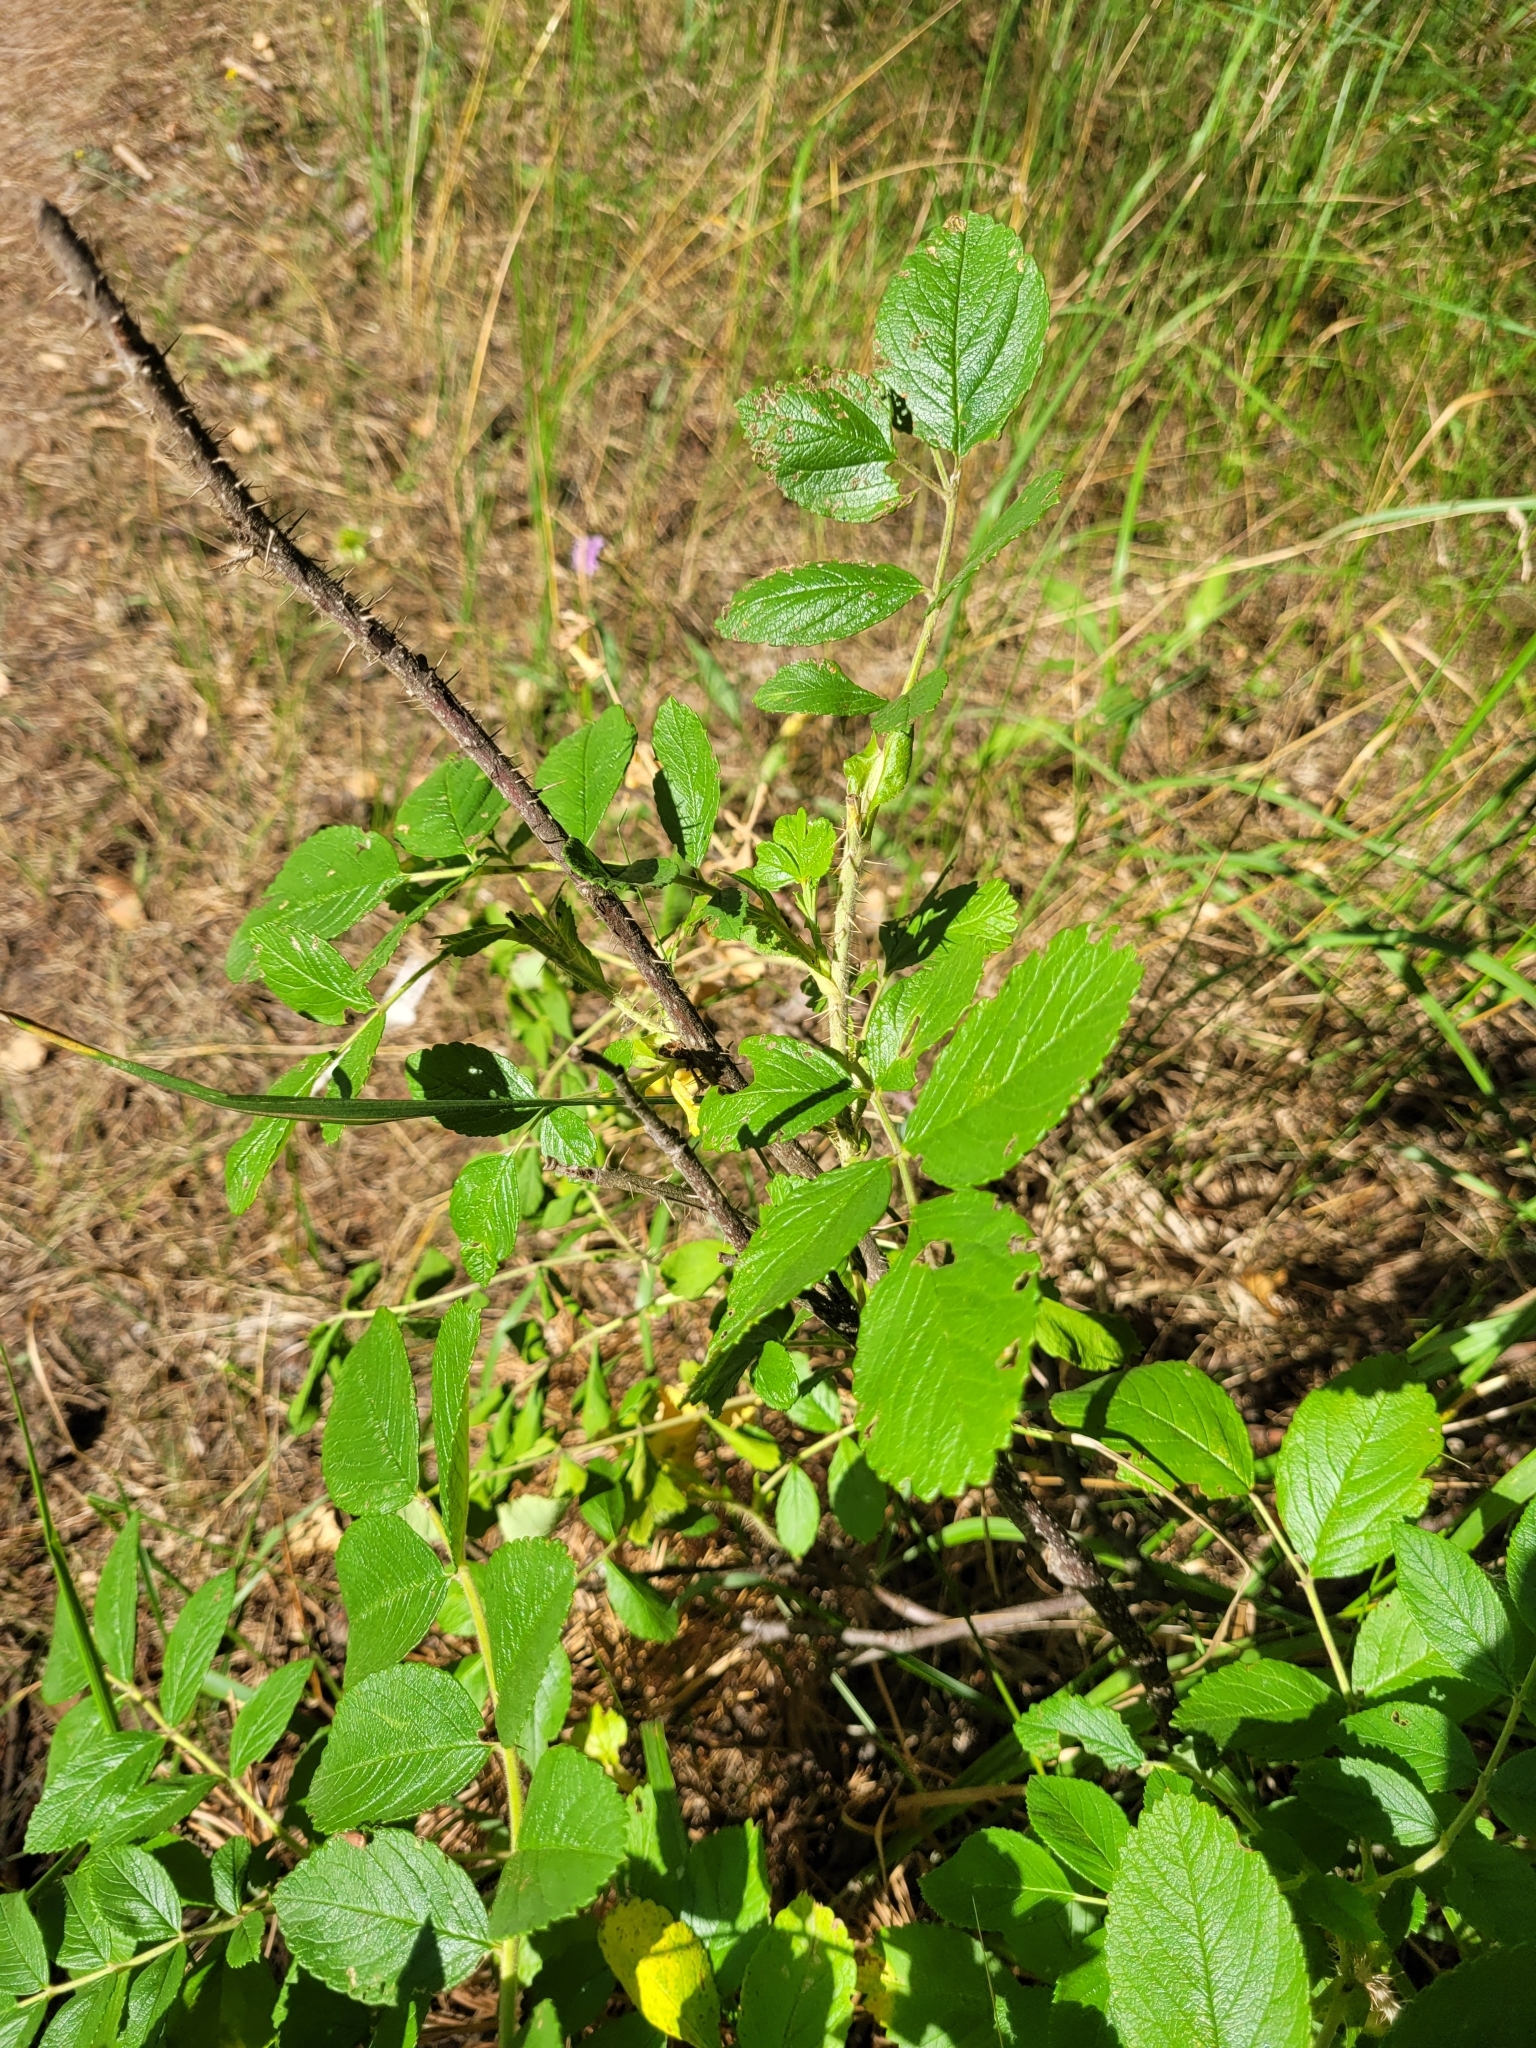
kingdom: Plantae
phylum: Tracheophyta
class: Magnoliopsida
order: Rosales
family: Rosaceae
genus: Rosa
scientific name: Rosa rugosa
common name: Japanese rose
